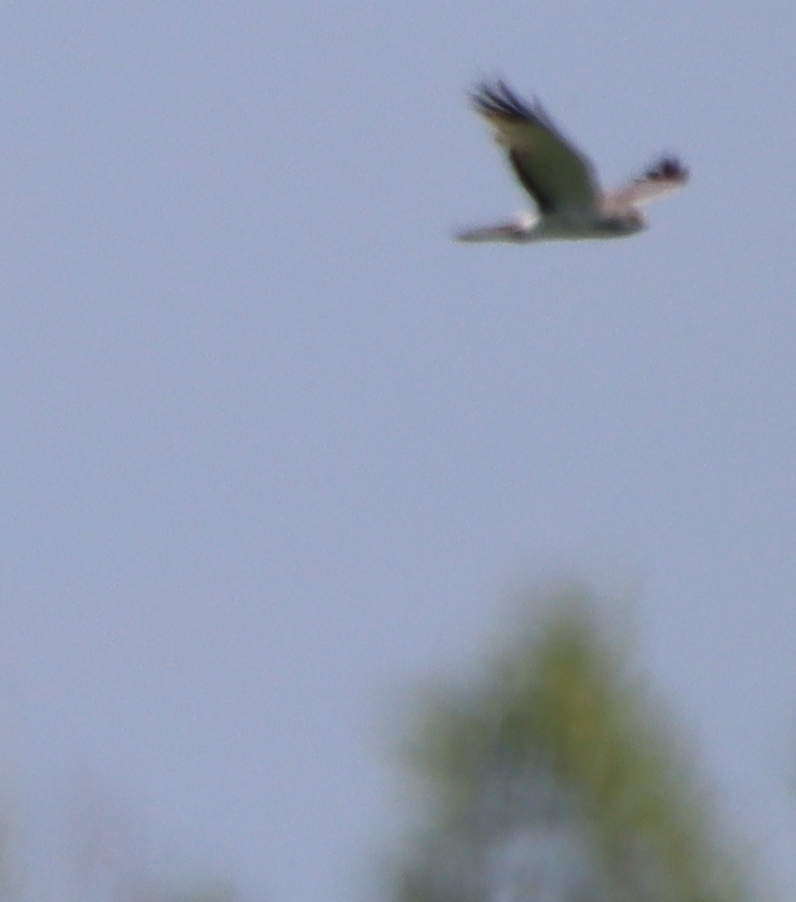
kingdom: Animalia
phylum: Chordata
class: Aves
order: Accipitriformes
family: Accipitridae
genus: Circus
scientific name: Circus cyaneus
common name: Hen harrier
